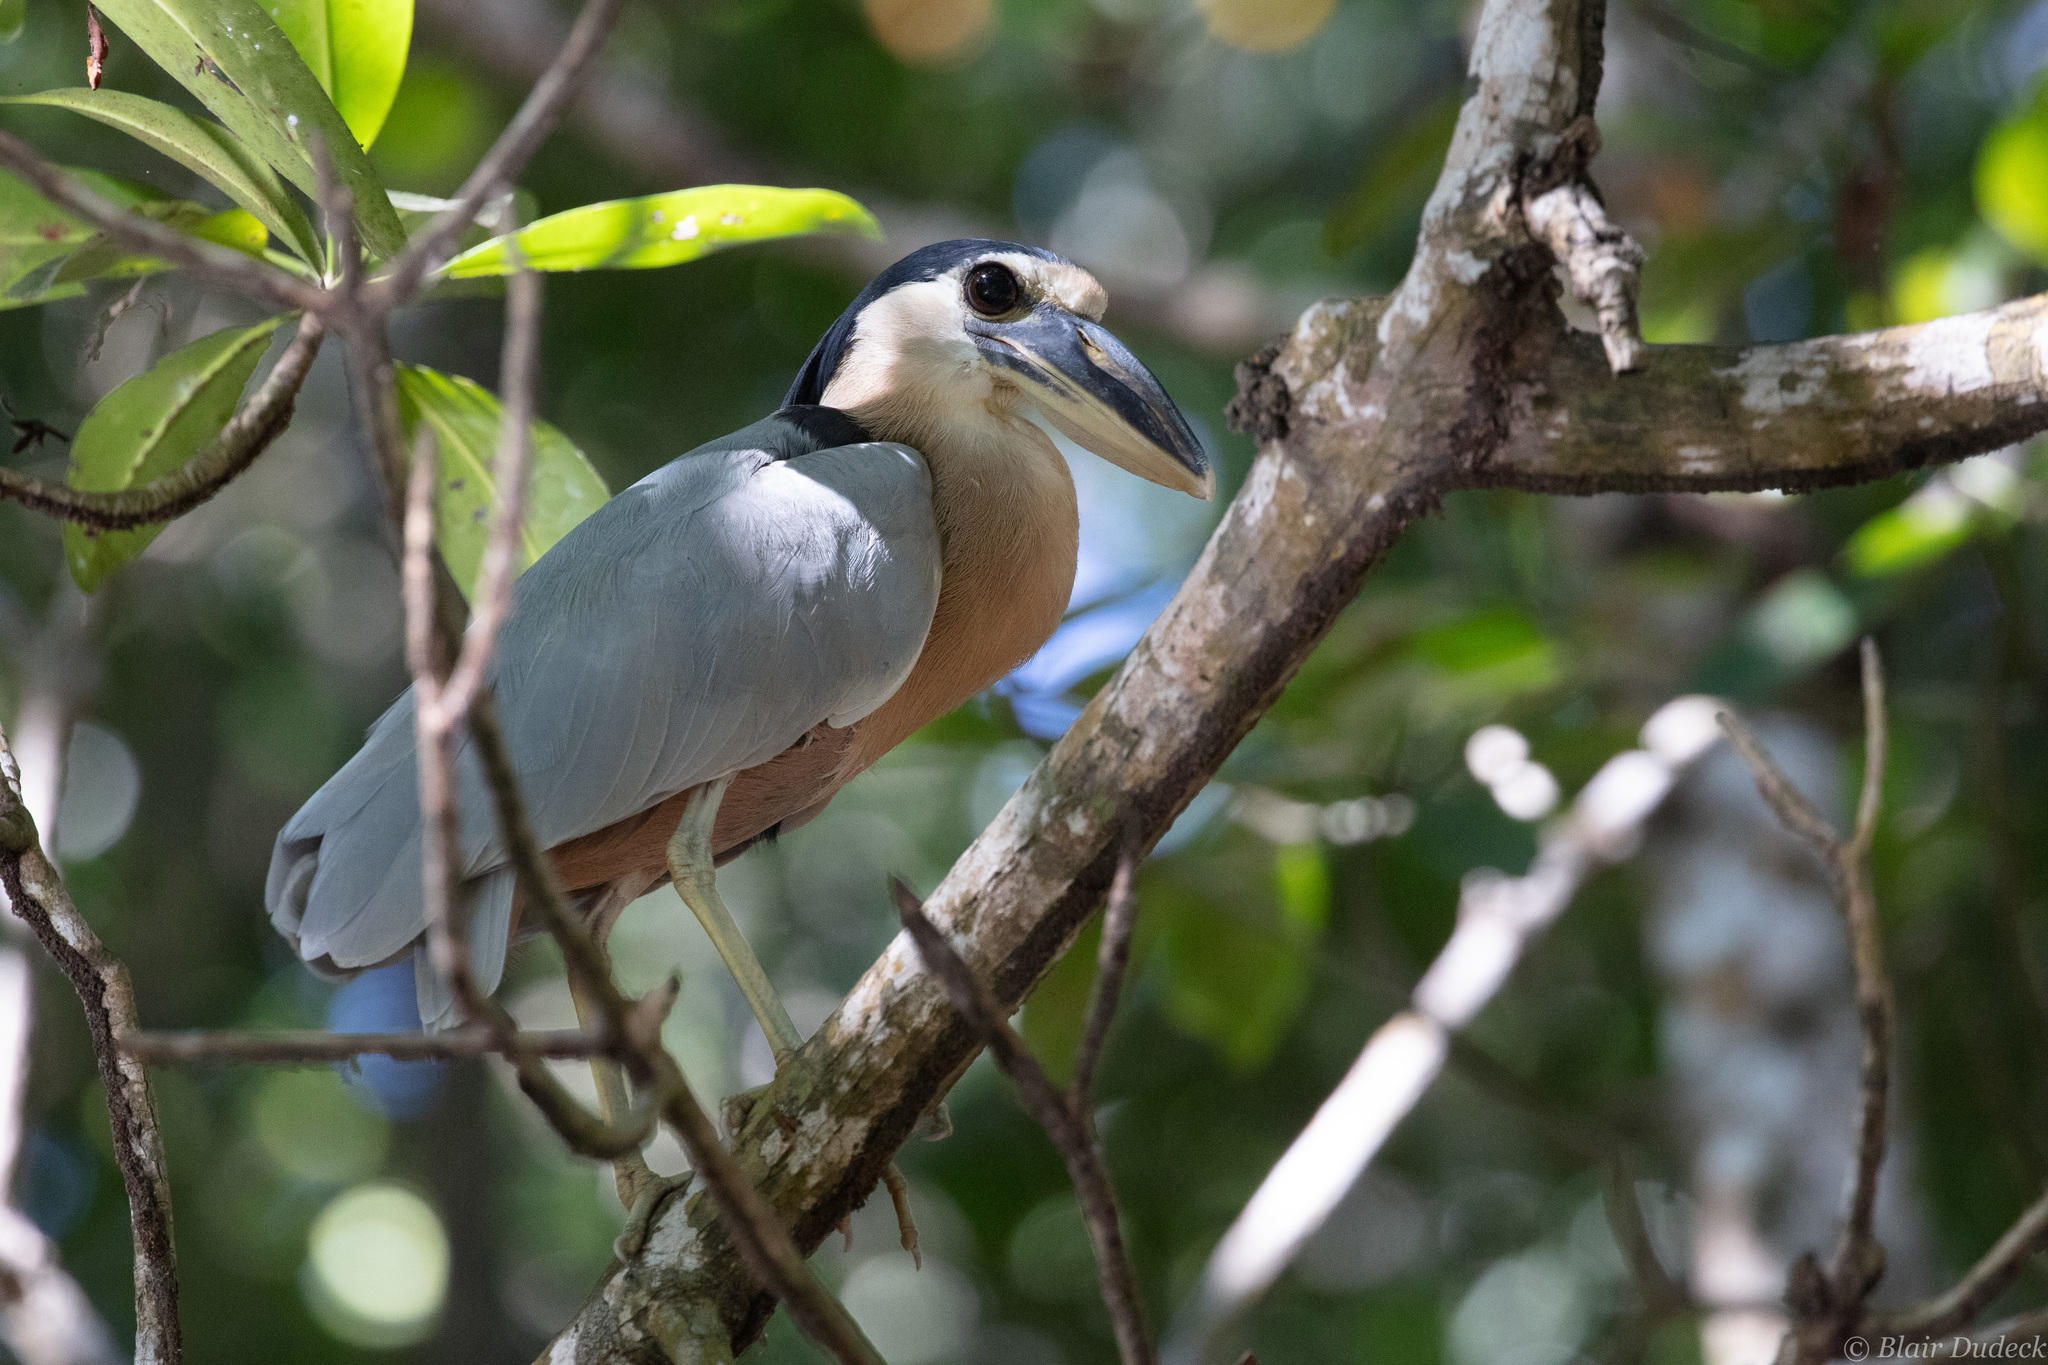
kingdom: Animalia
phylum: Chordata
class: Aves
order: Pelecaniformes
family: Ardeidae
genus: Cochlearius
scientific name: Cochlearius cochlearius
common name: Boat-billed heron
